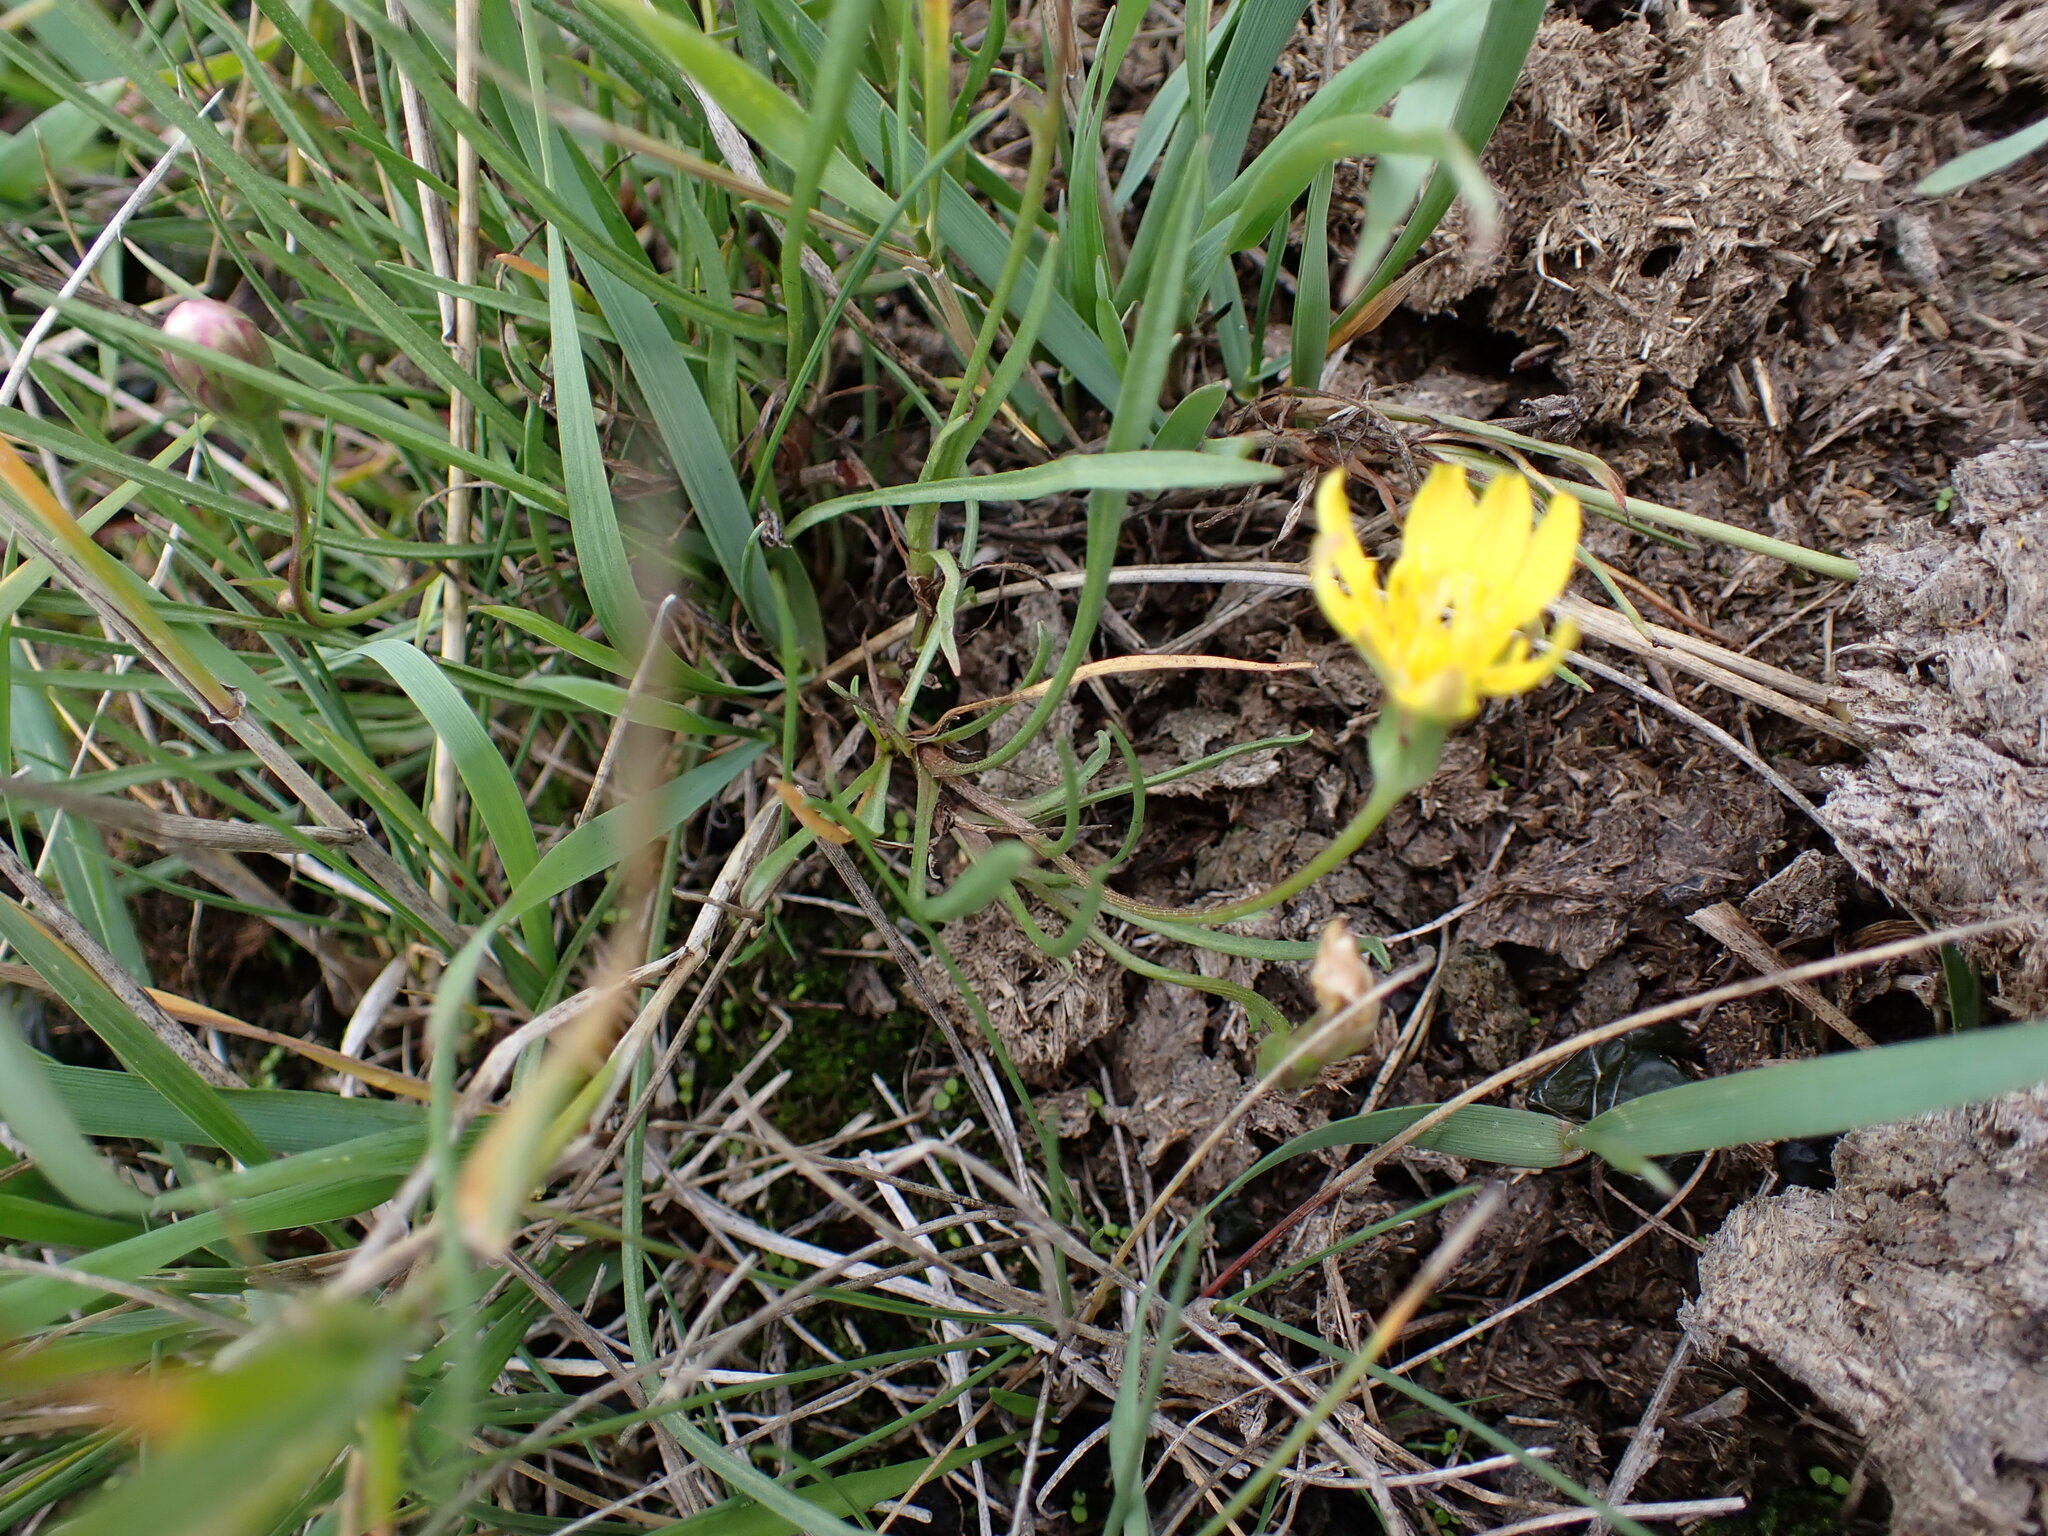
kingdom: Plantae
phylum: Tracheophyta
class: Magnoliopsida
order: Asterales
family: Asteraceae
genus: Scorzonera
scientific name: Scorzonera cana
